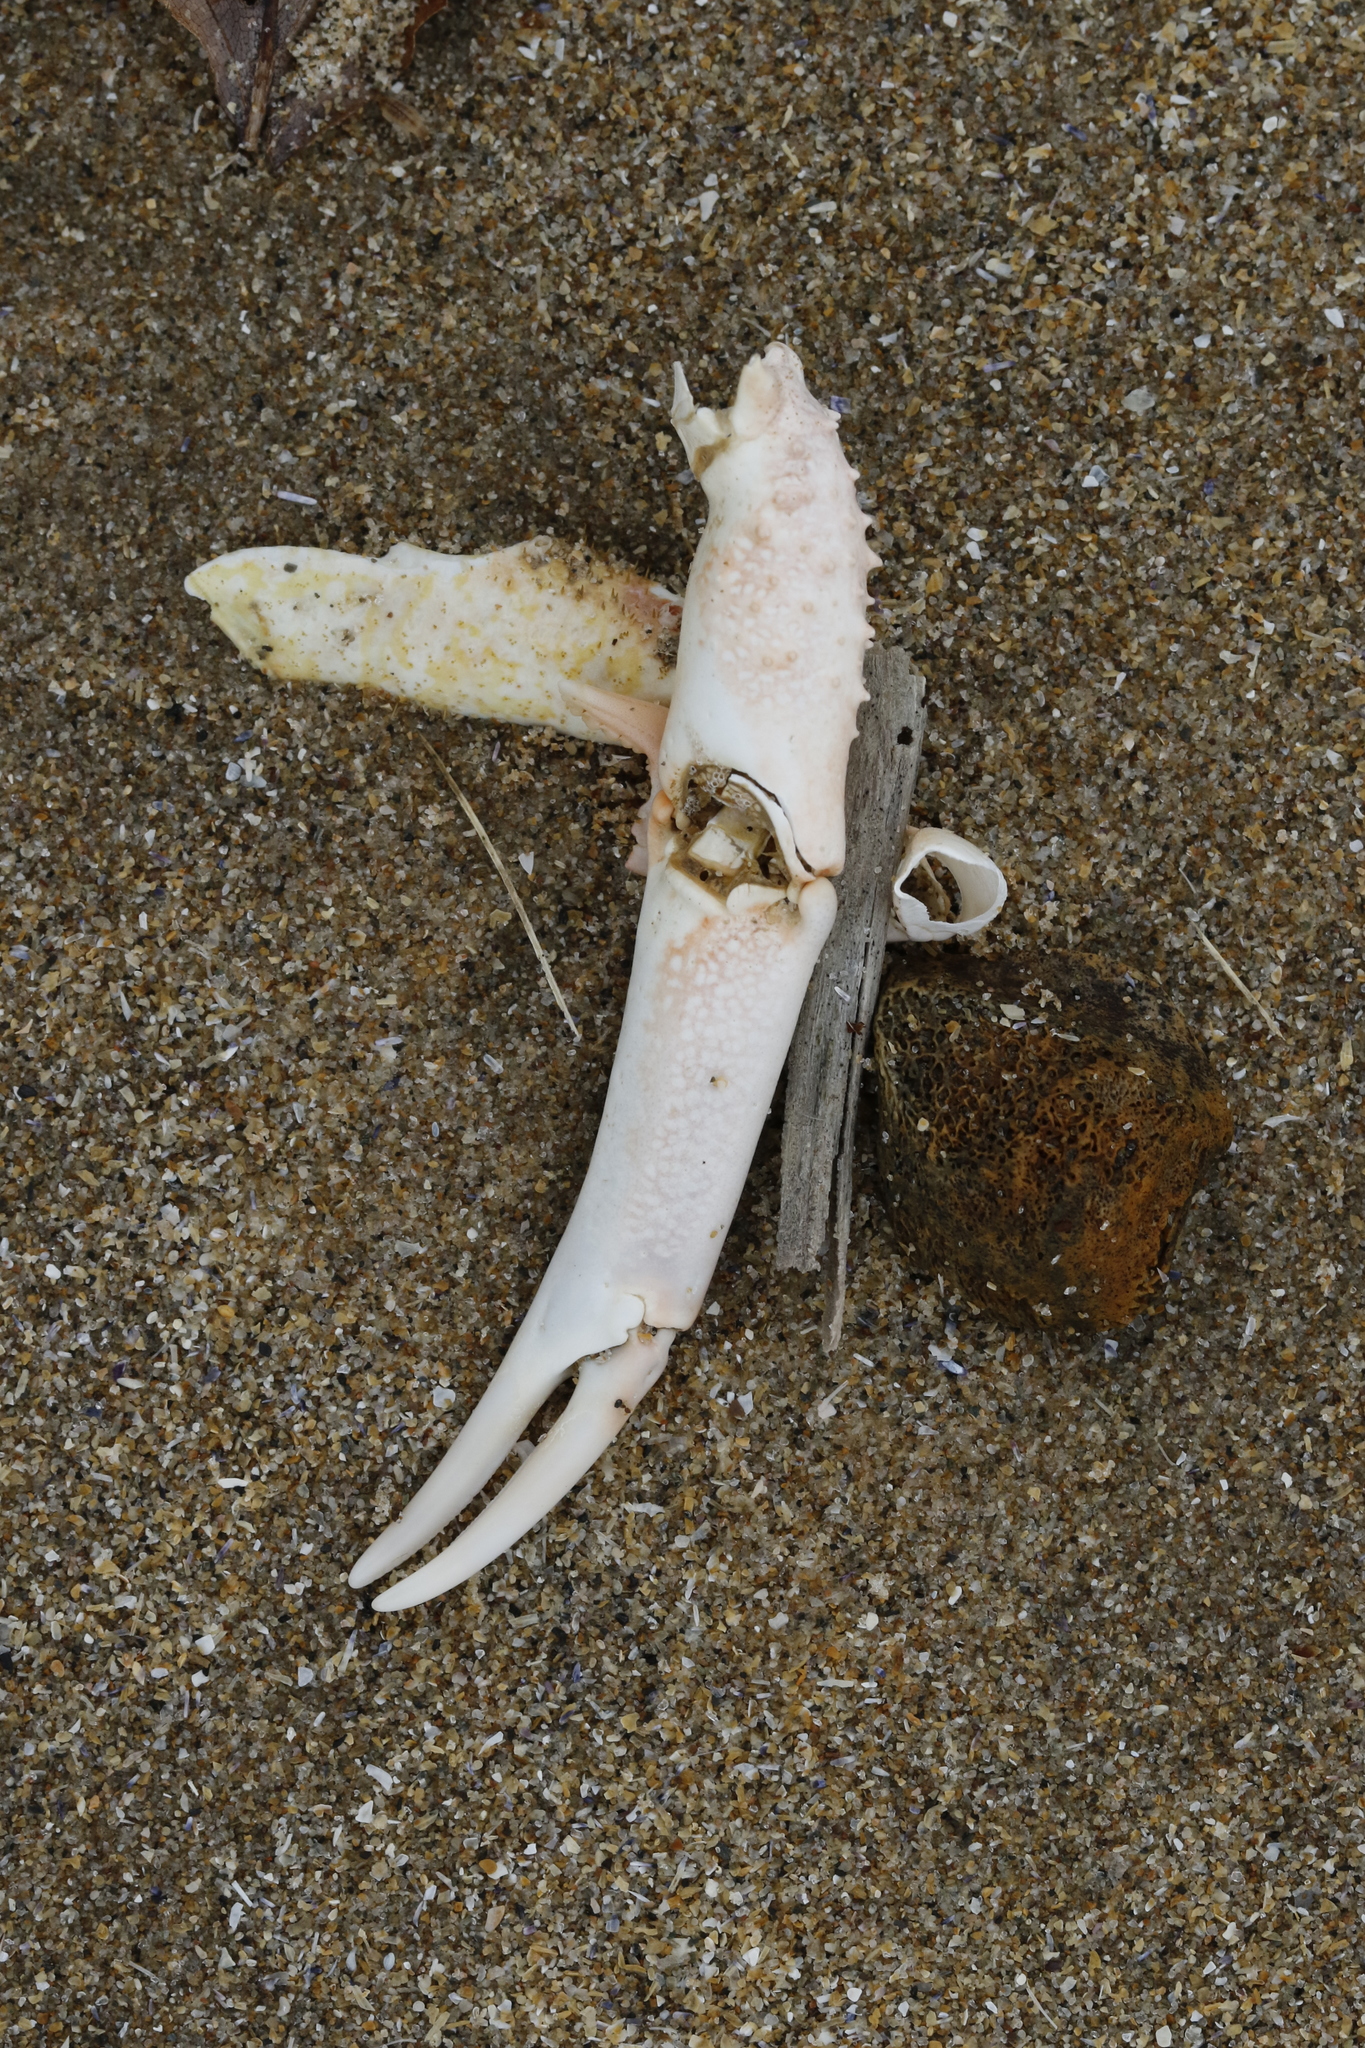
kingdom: Animalia
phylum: Arthropoda
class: Malacostraca
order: Decapoda
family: Majidae
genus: Maja
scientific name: Maja brachydactyla
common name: Common spider crab
